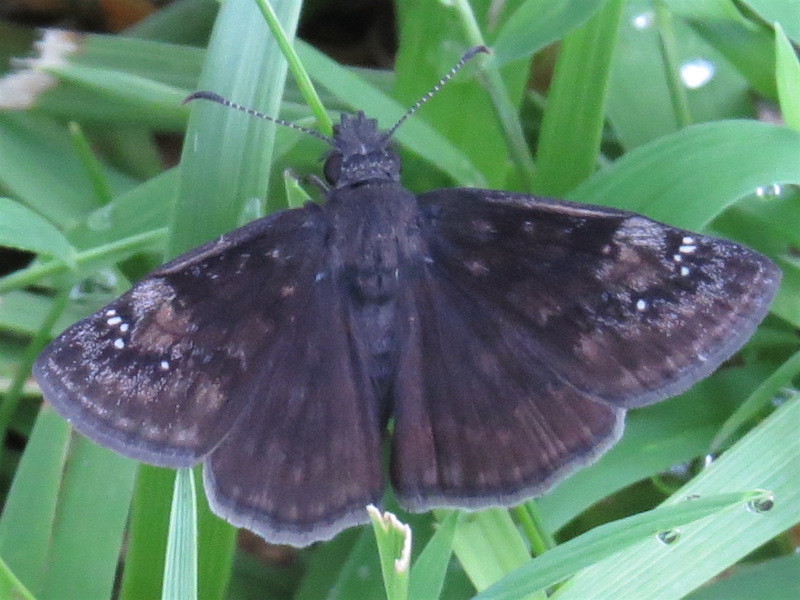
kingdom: Animalia
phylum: Arthropoda
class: Insecta
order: Lepidoptera
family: Hesperiidae
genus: Erynnis
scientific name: Erynnis baptisiae
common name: Wild indigo duskywing
